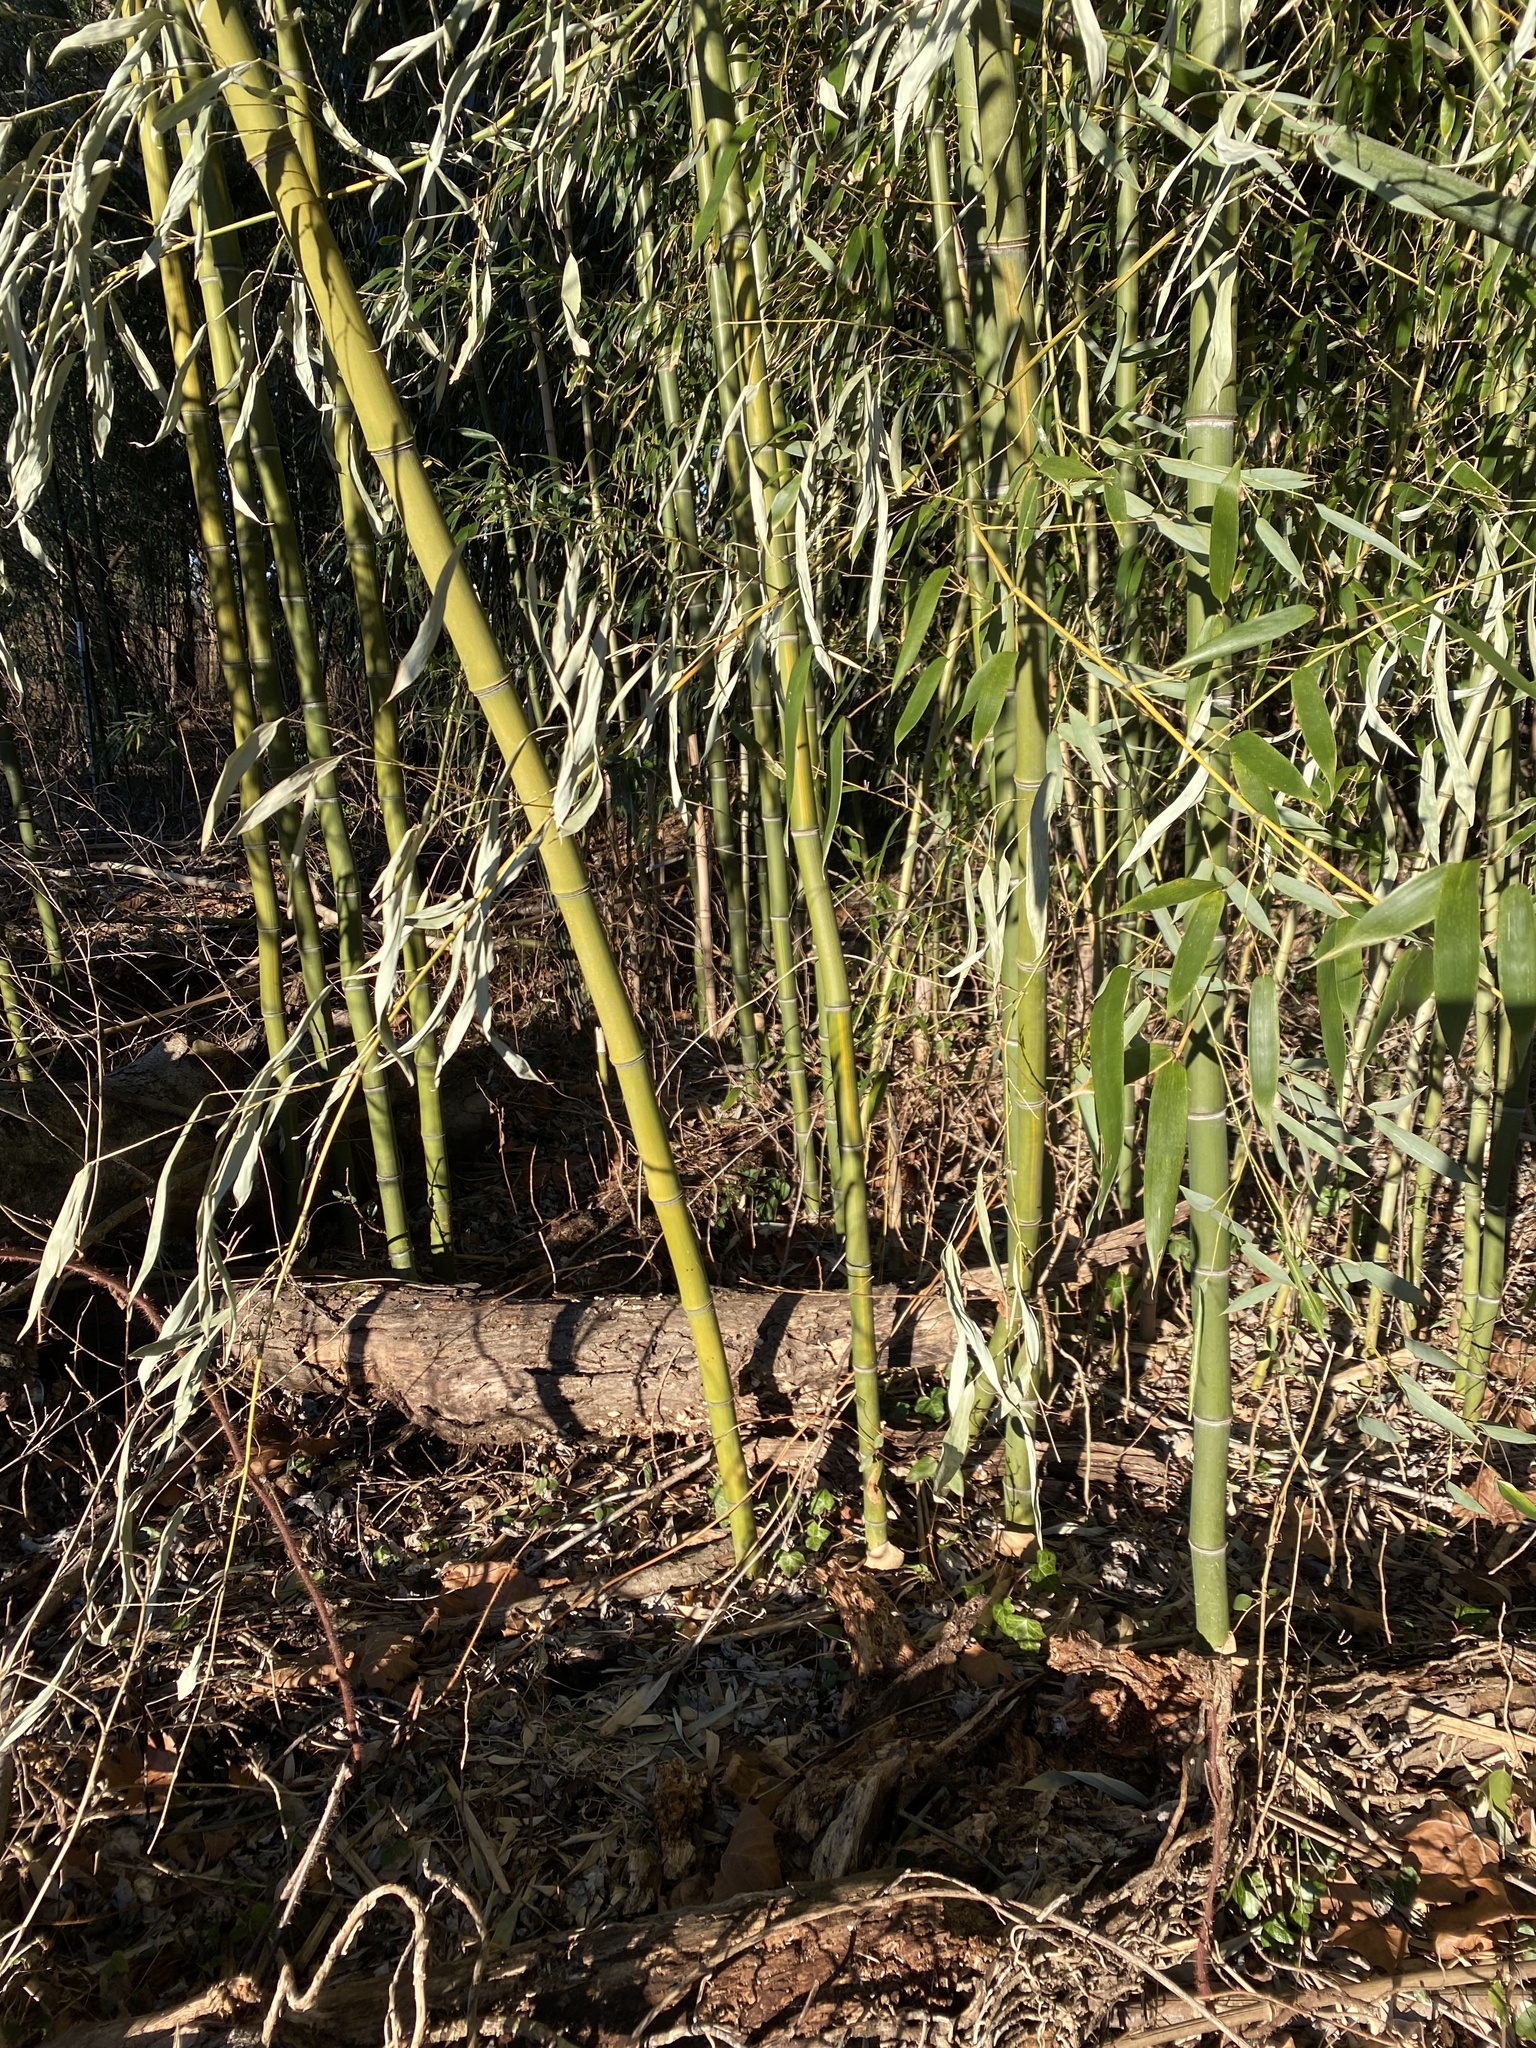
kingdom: Plantae
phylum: Tracheophyta
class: Liliopsida
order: Poales
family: Poaceae
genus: Phyllostachys
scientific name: Phyllostachys aureosulcata
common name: Yellow groove bamboo
